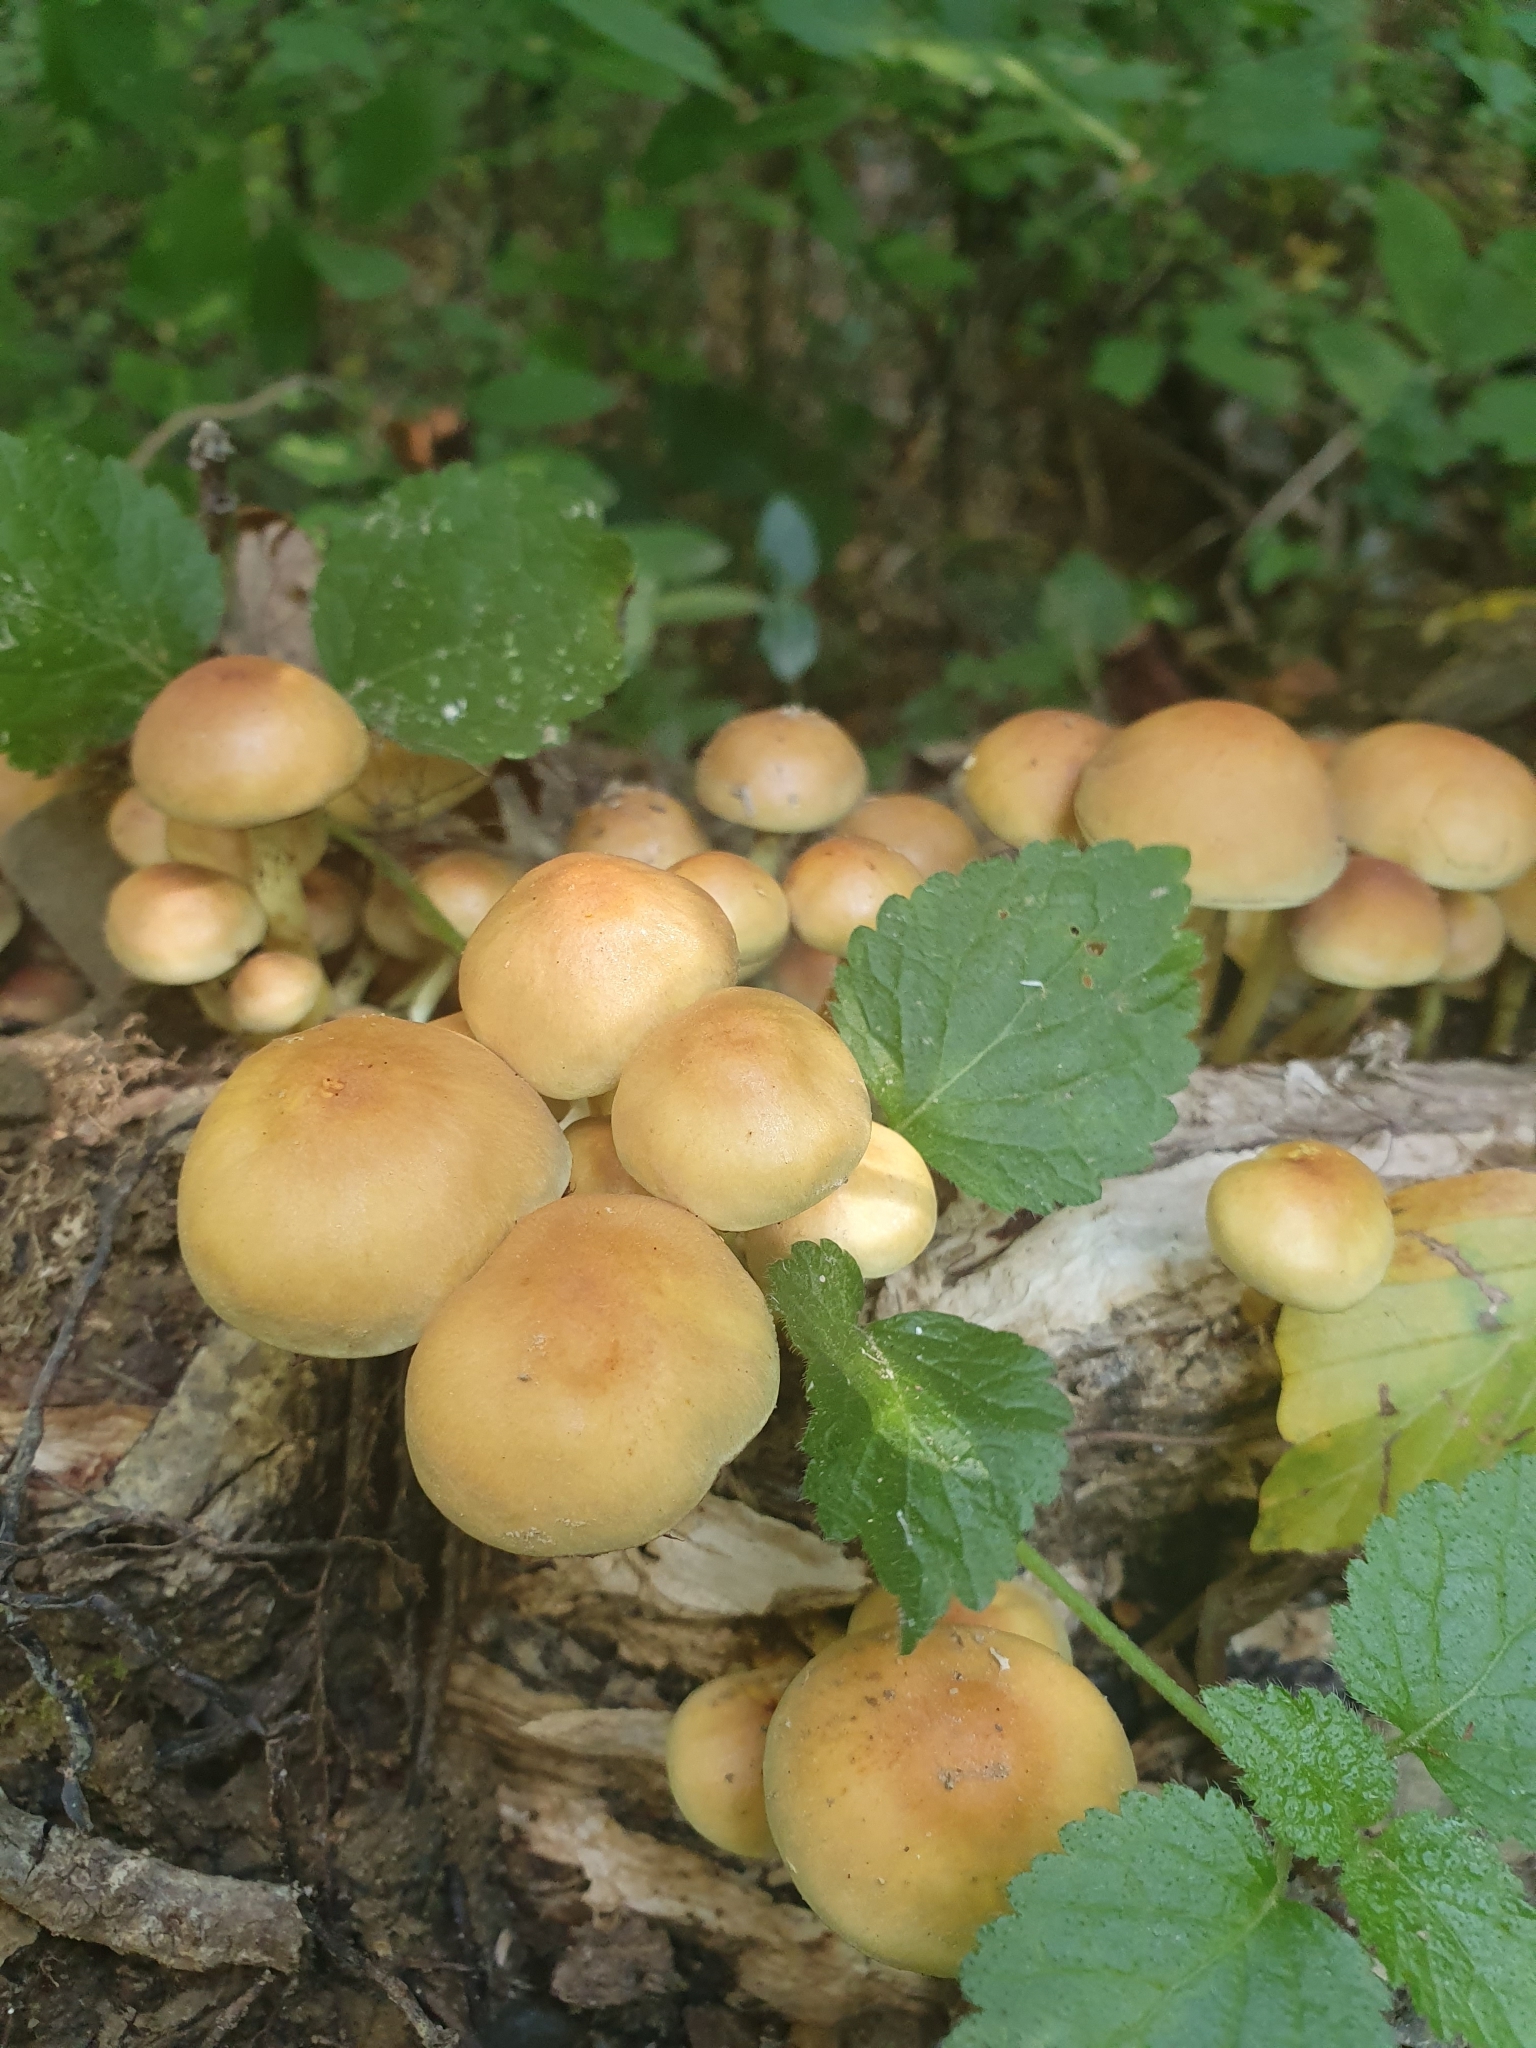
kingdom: Fungi
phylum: Basidiomycota
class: Agaricomycetes
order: Agaricales
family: Strophariaceae
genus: Hypholoma
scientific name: Hypholoma fasciculare
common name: Sulphur tuft
